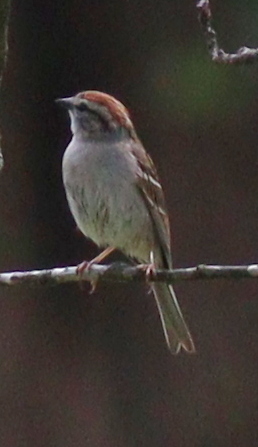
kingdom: Animalia
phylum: Chordata
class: Aves
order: Passeriformes
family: Passerellidae
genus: Spizella
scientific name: Spizella passerina
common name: Chipping sparrow
